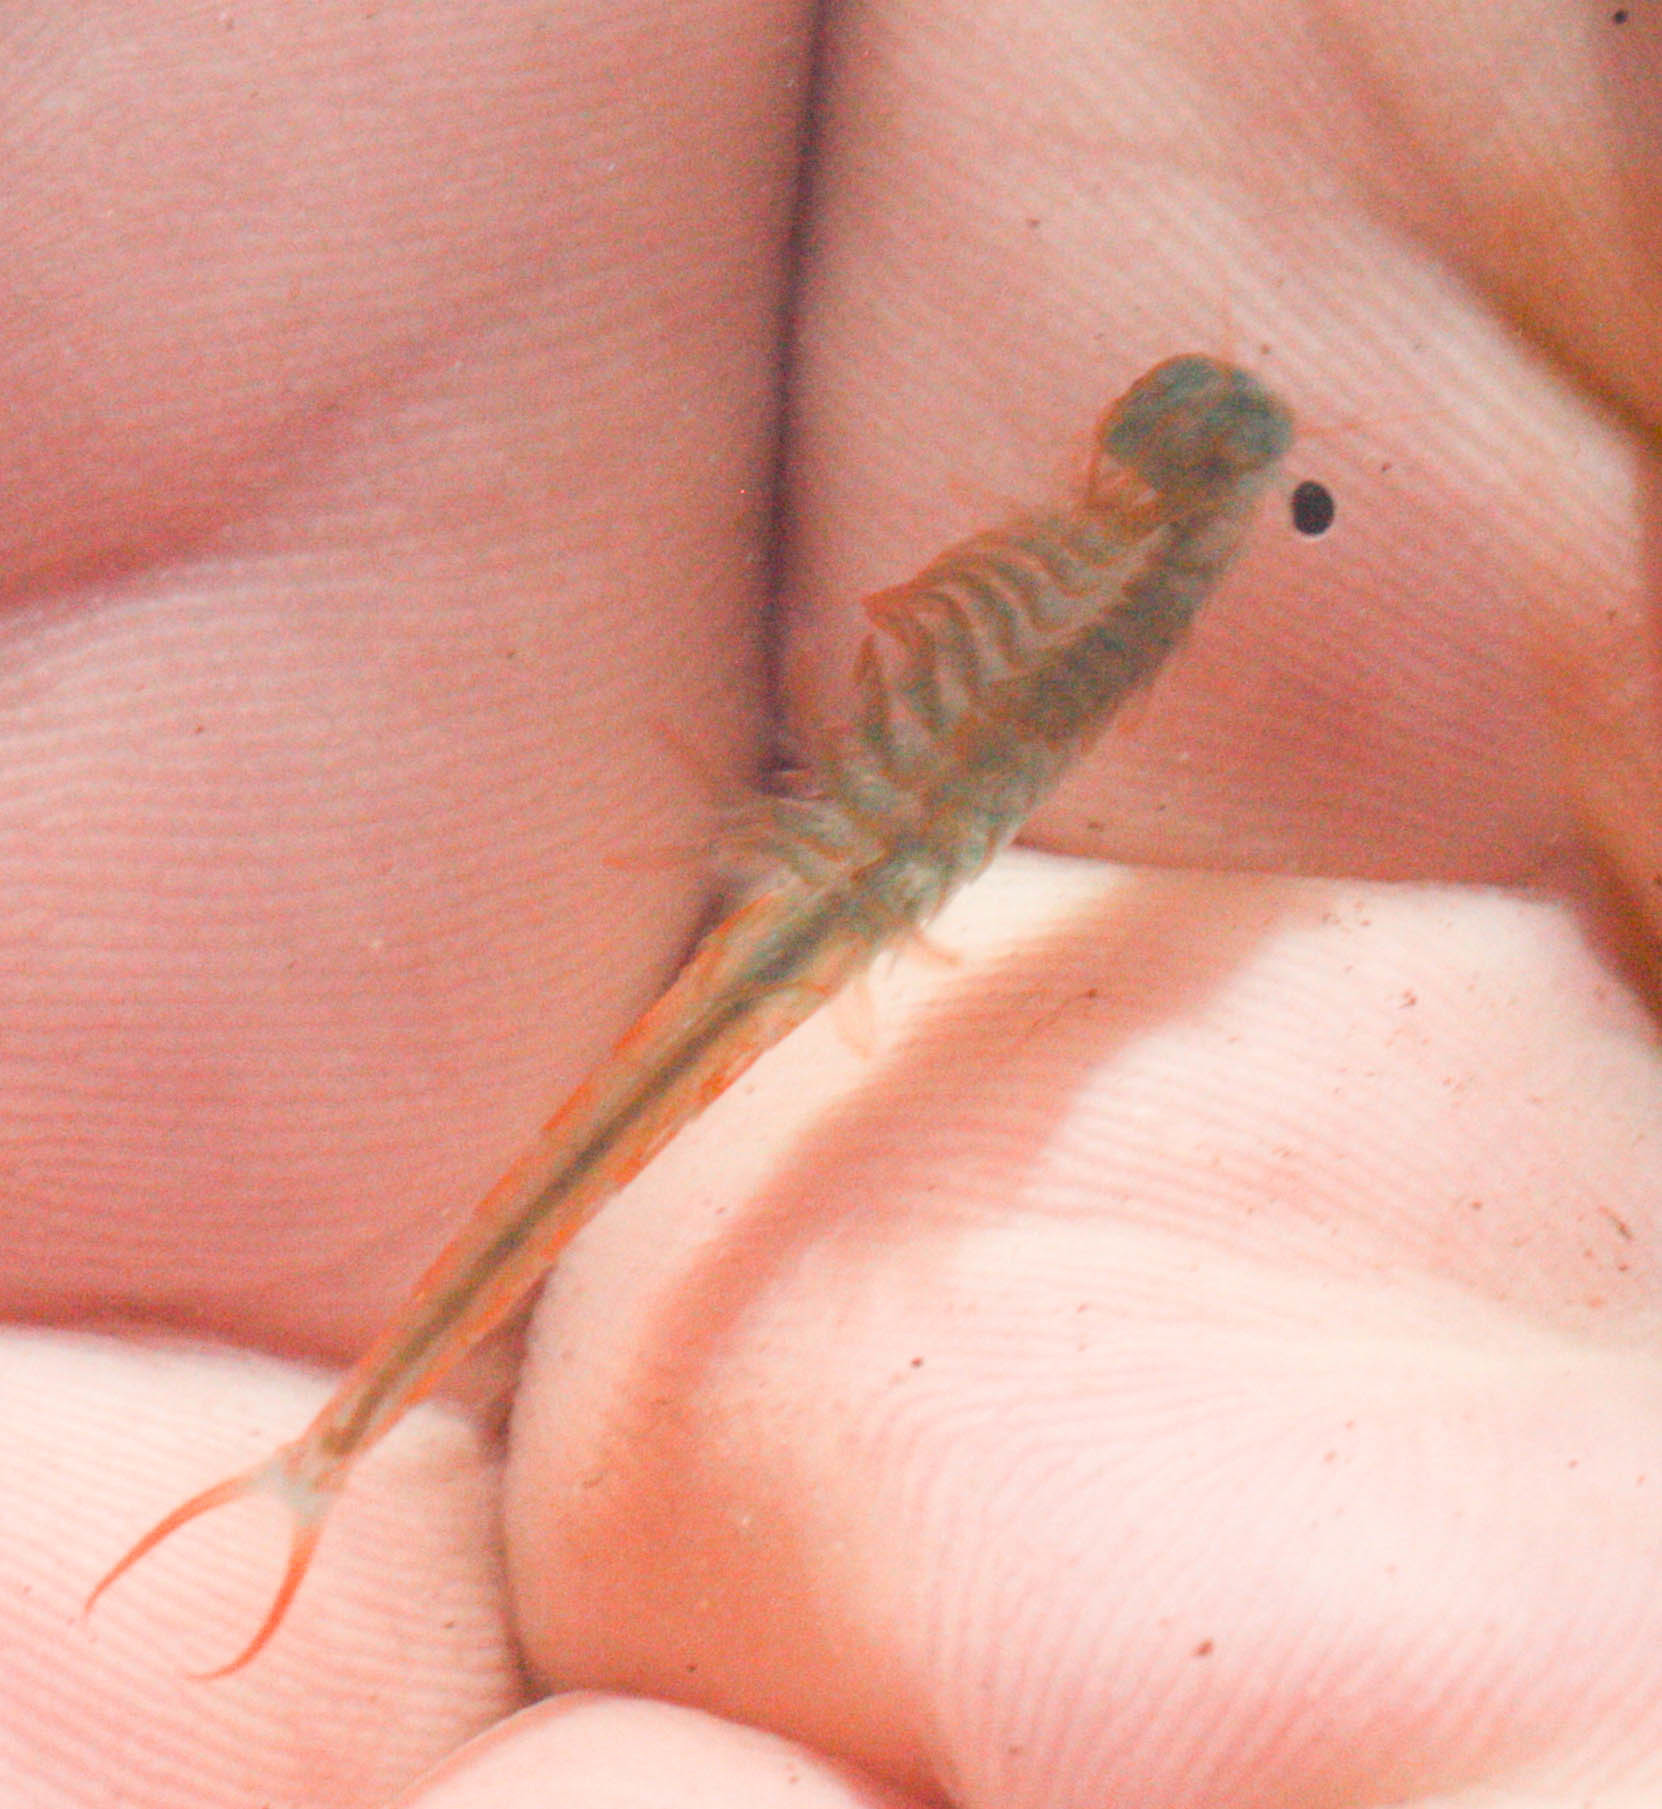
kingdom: Animalia
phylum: Arthropoda
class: Branchiopoda
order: Anostraca
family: Streptocephalidae
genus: Streptocephalus
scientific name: Streptocephalus coloradensis
